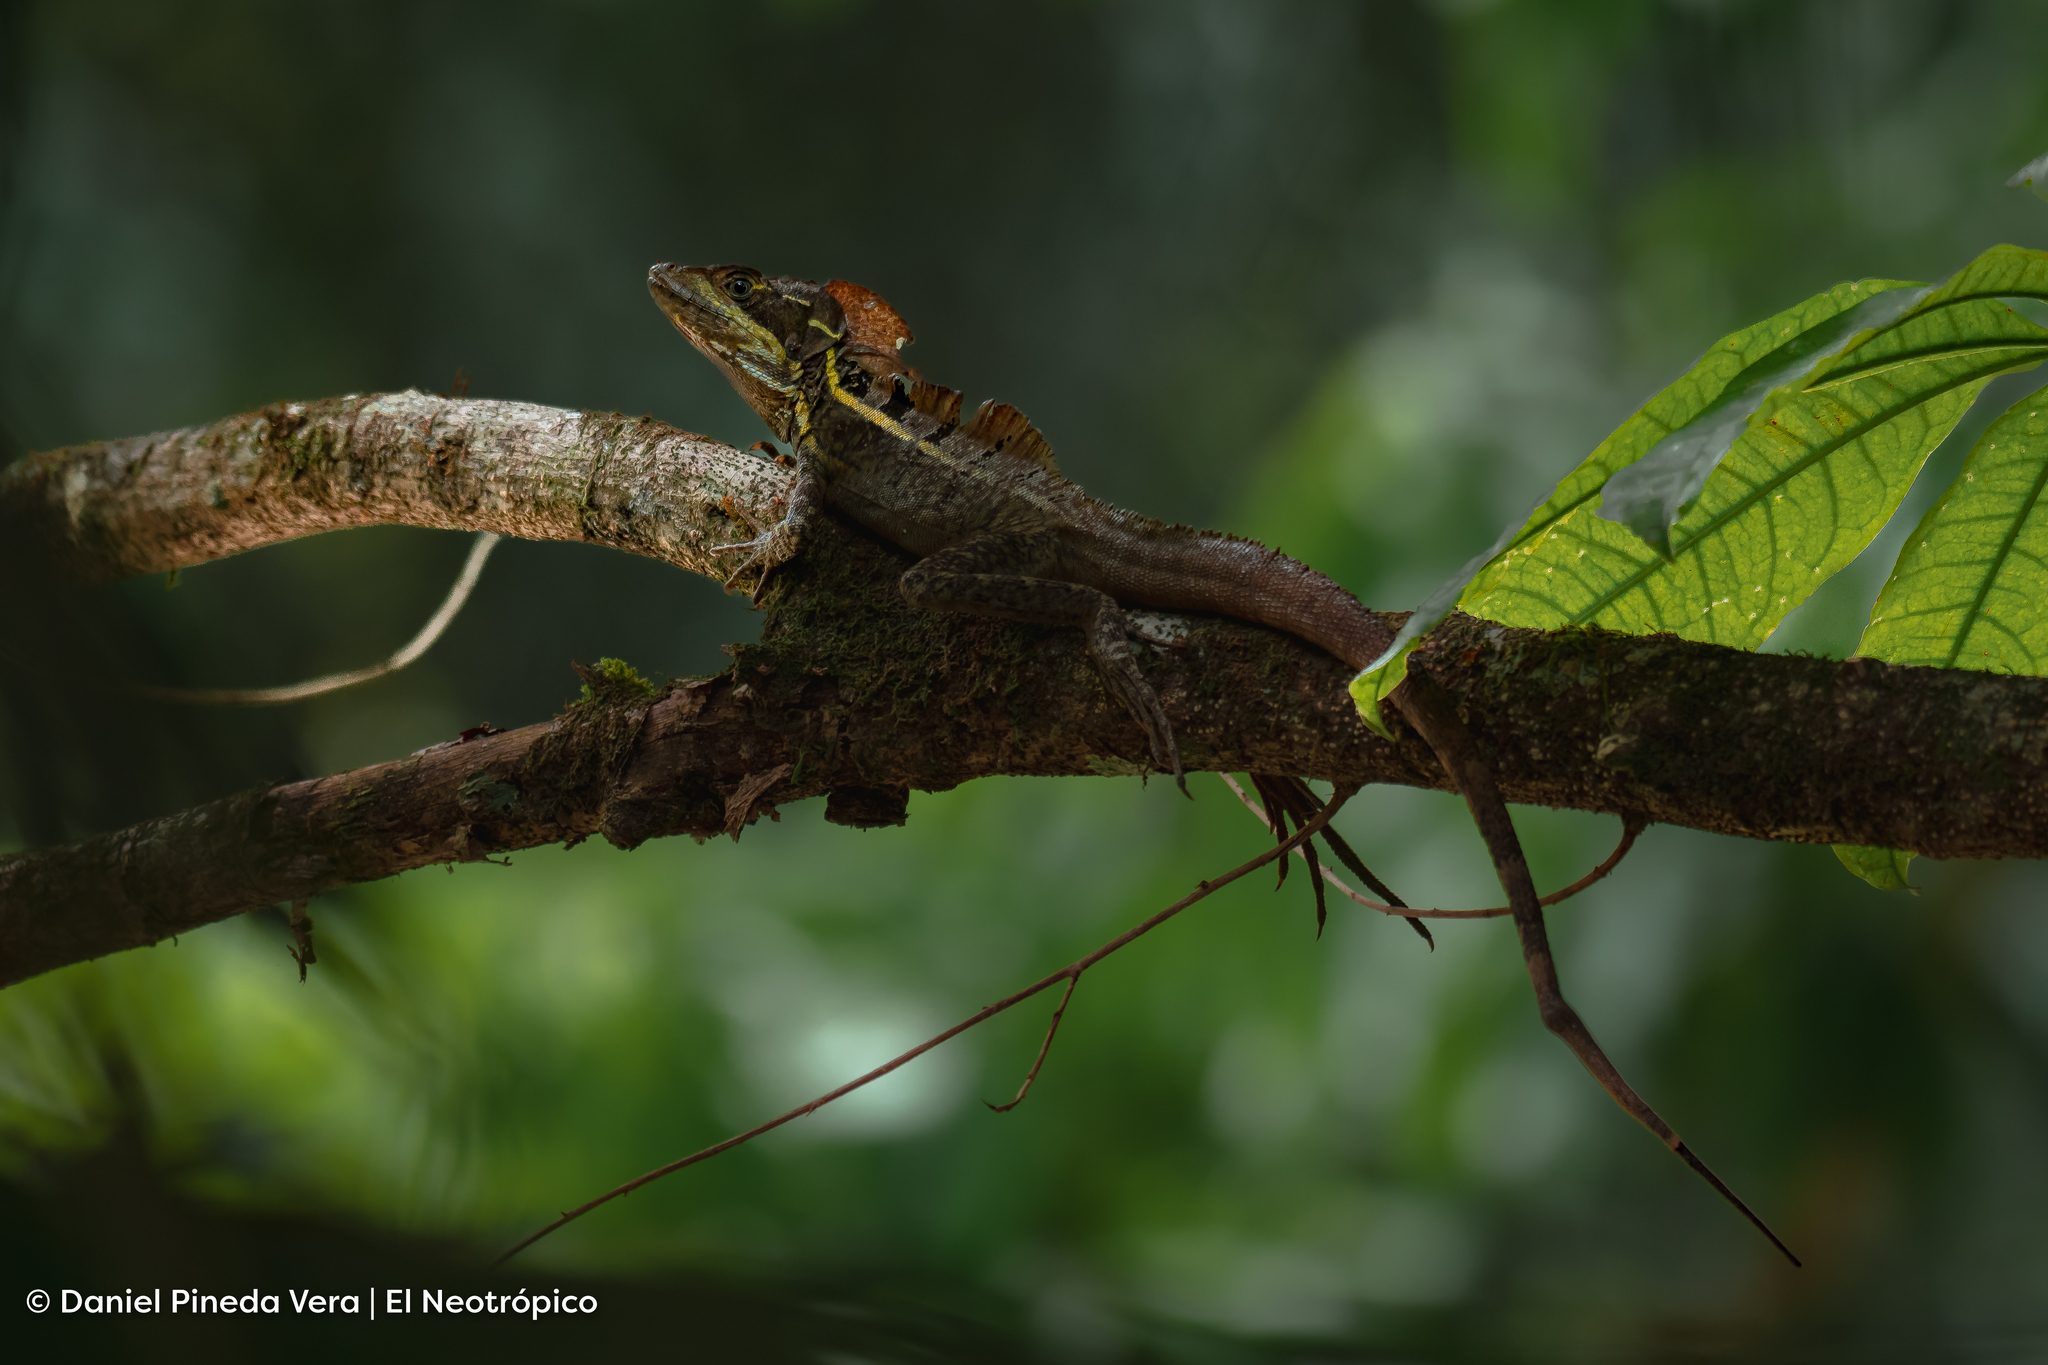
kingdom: Animalia
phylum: Chordata
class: Squamata
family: Corytophanidae
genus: Basiliscus
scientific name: Basiliscus vittatus
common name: Brown basilisk
